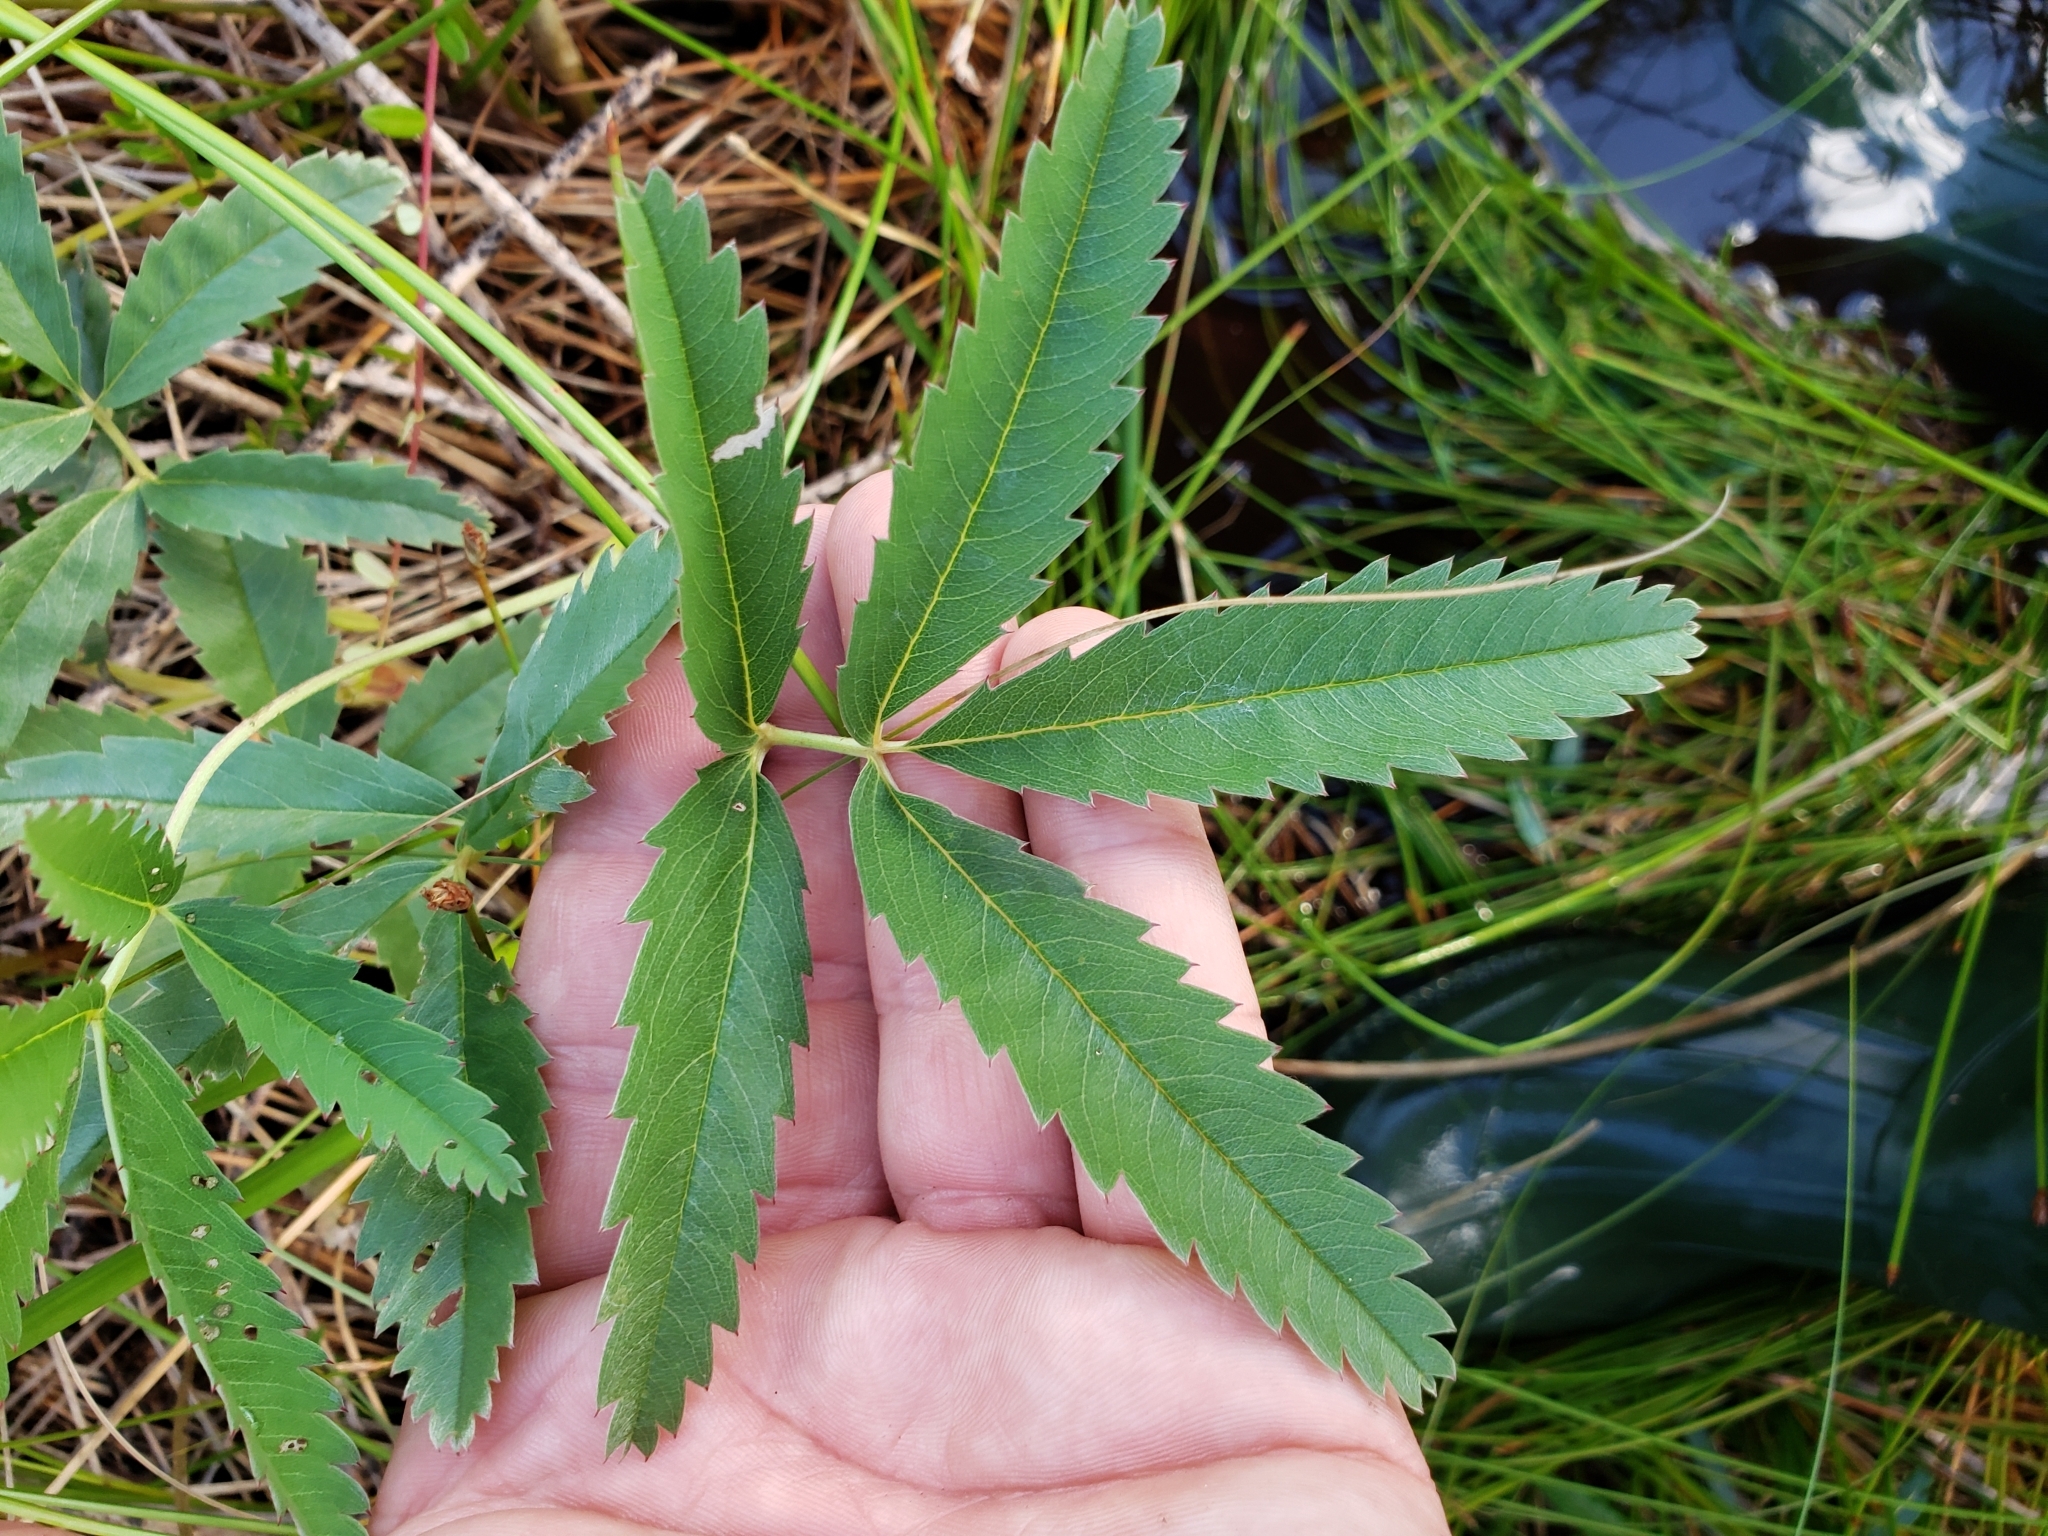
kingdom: Plantae
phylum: Tracheophyta
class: Magnoliopsida
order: Rosales
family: Rosaceae
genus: Comarum
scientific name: Comarum palustre
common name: Marsh cinquefoil
